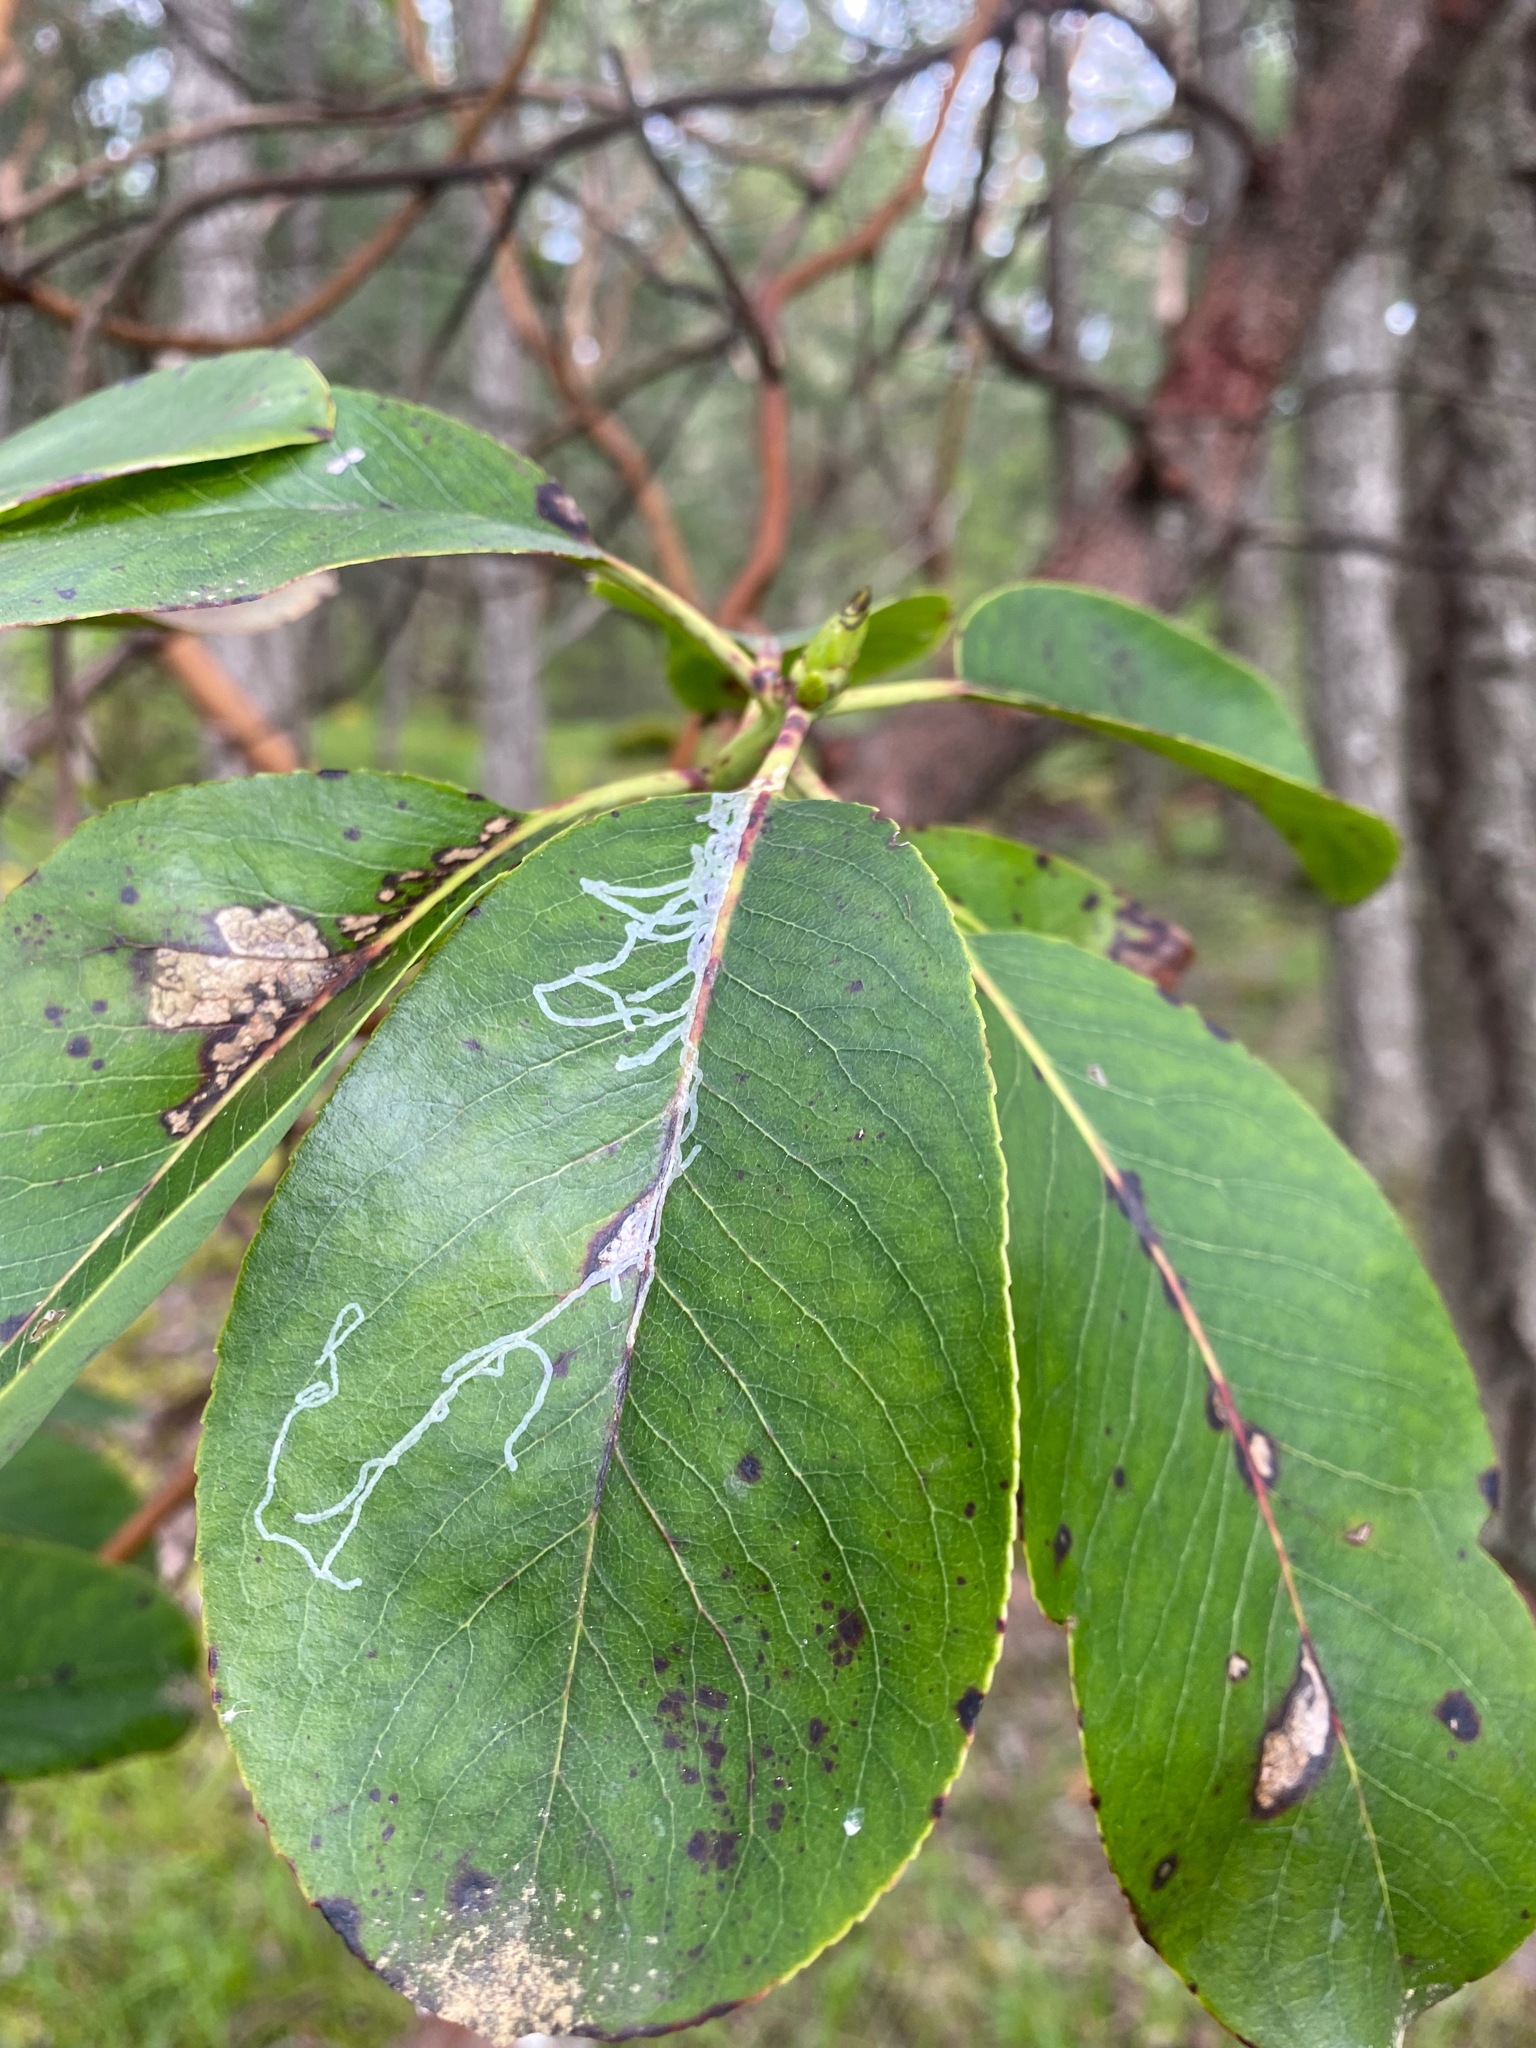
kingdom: Animalia
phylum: Arthropoda
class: Insecta
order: Lepidoptera
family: Gracillariidae
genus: Marmara
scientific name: Marmara arbutiella
